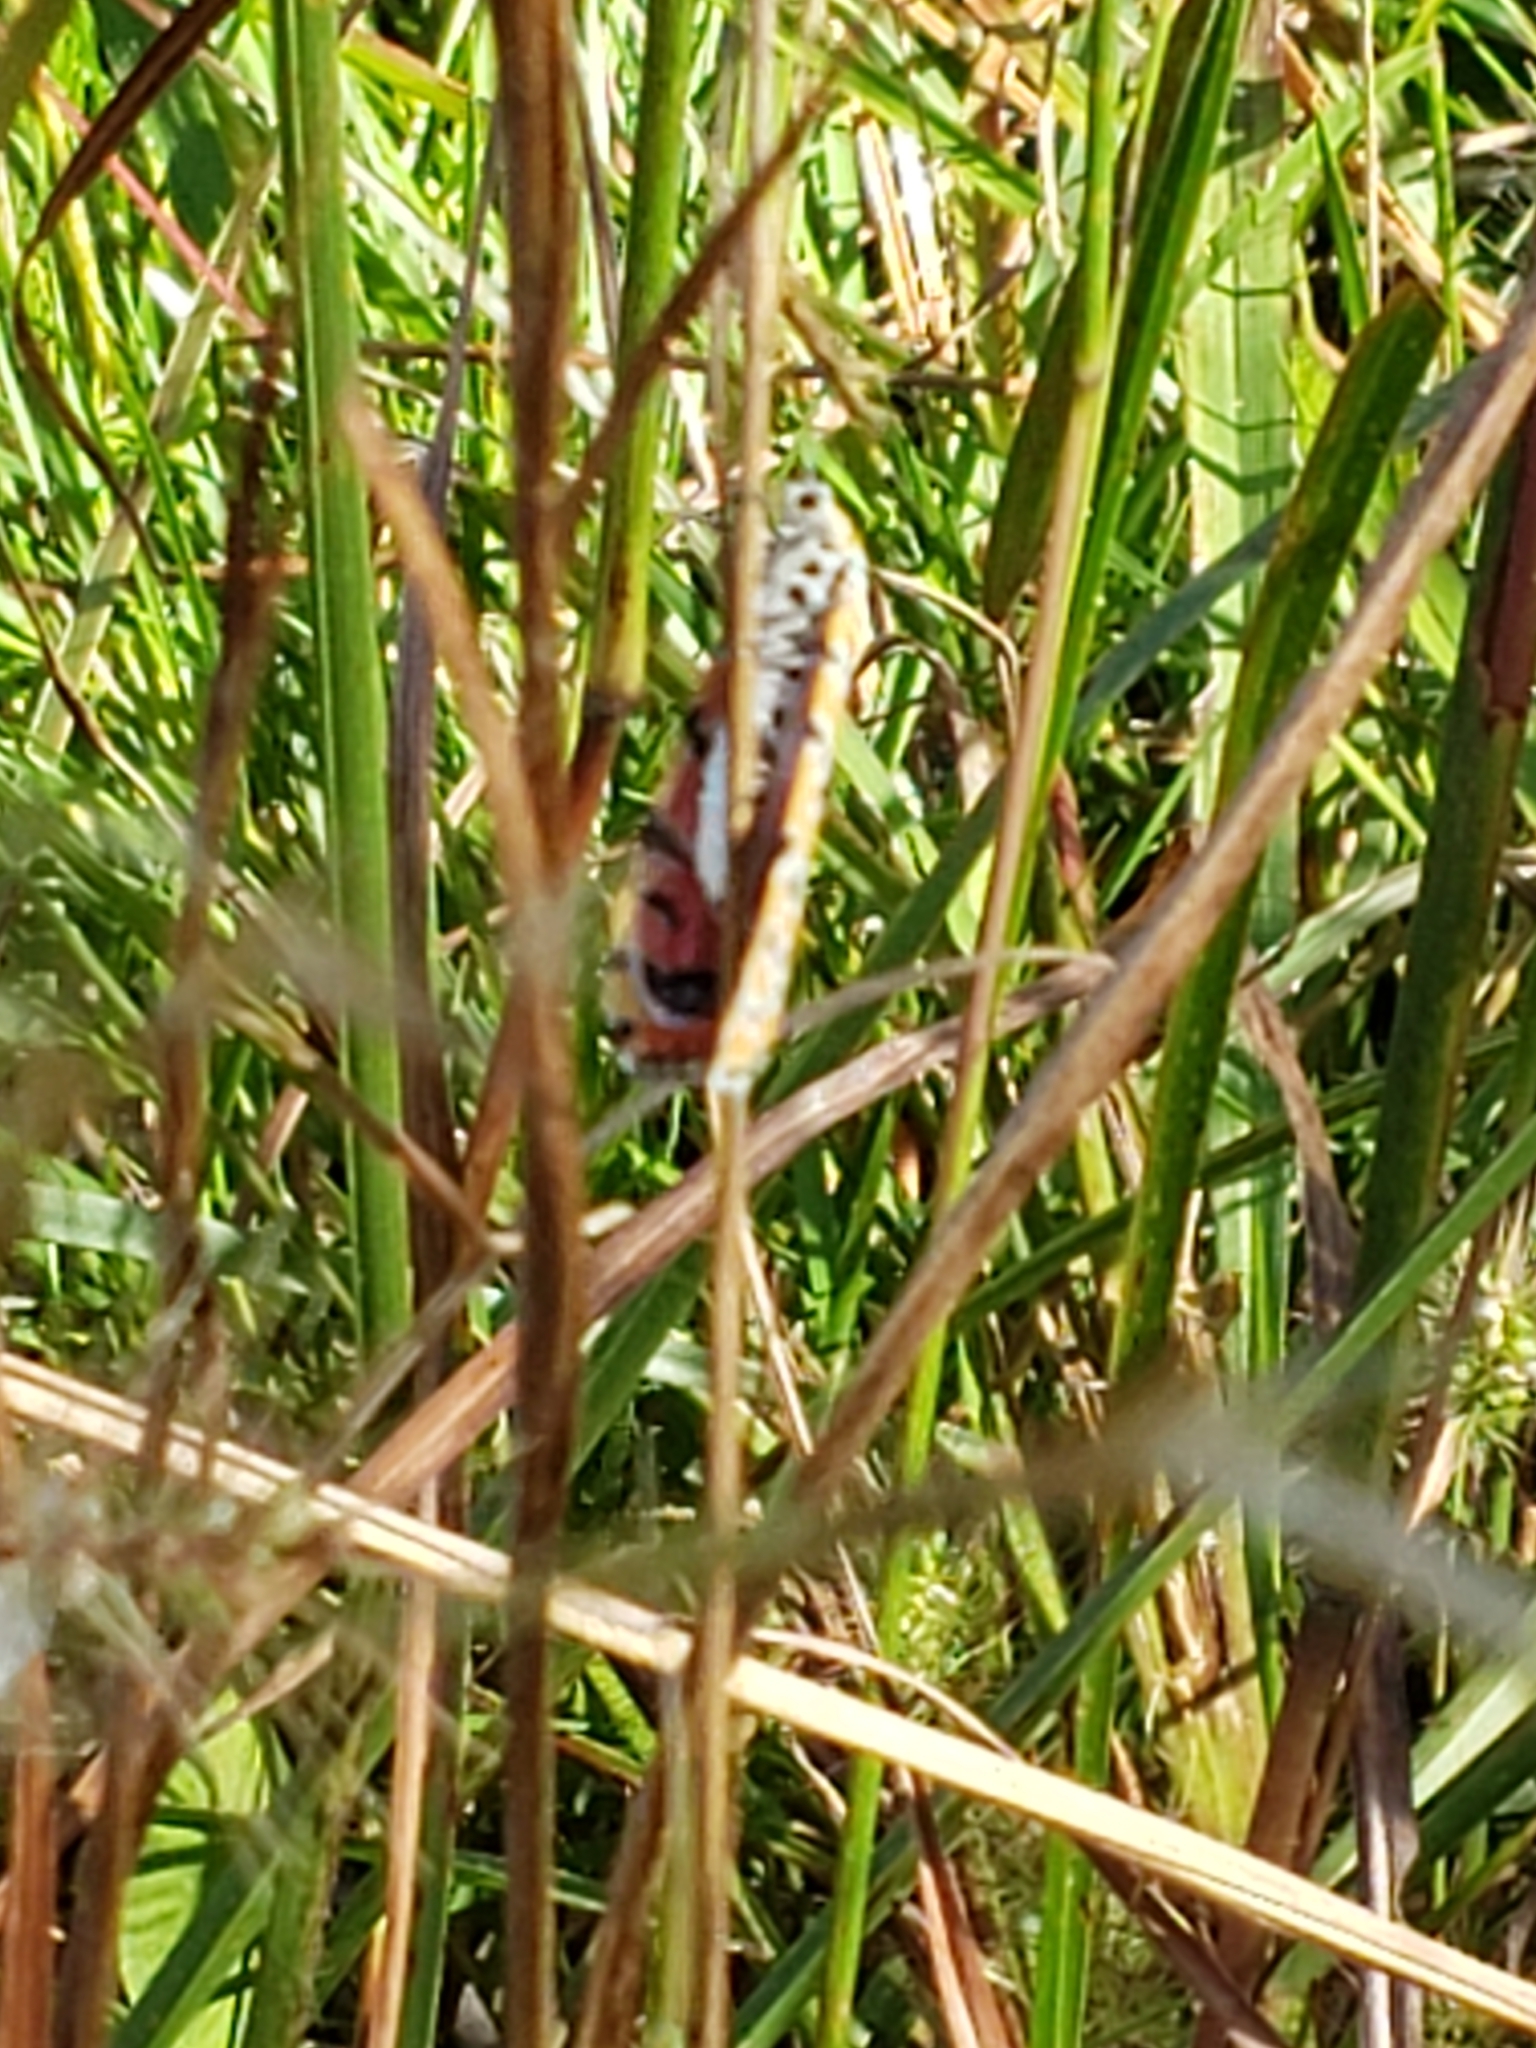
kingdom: Animalia
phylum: Arthropoda
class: Insecta
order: Lepidoptera
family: Erebidae
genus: Utetheisa
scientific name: Utetheisa ornatrix
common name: Beautiful utetheisa
